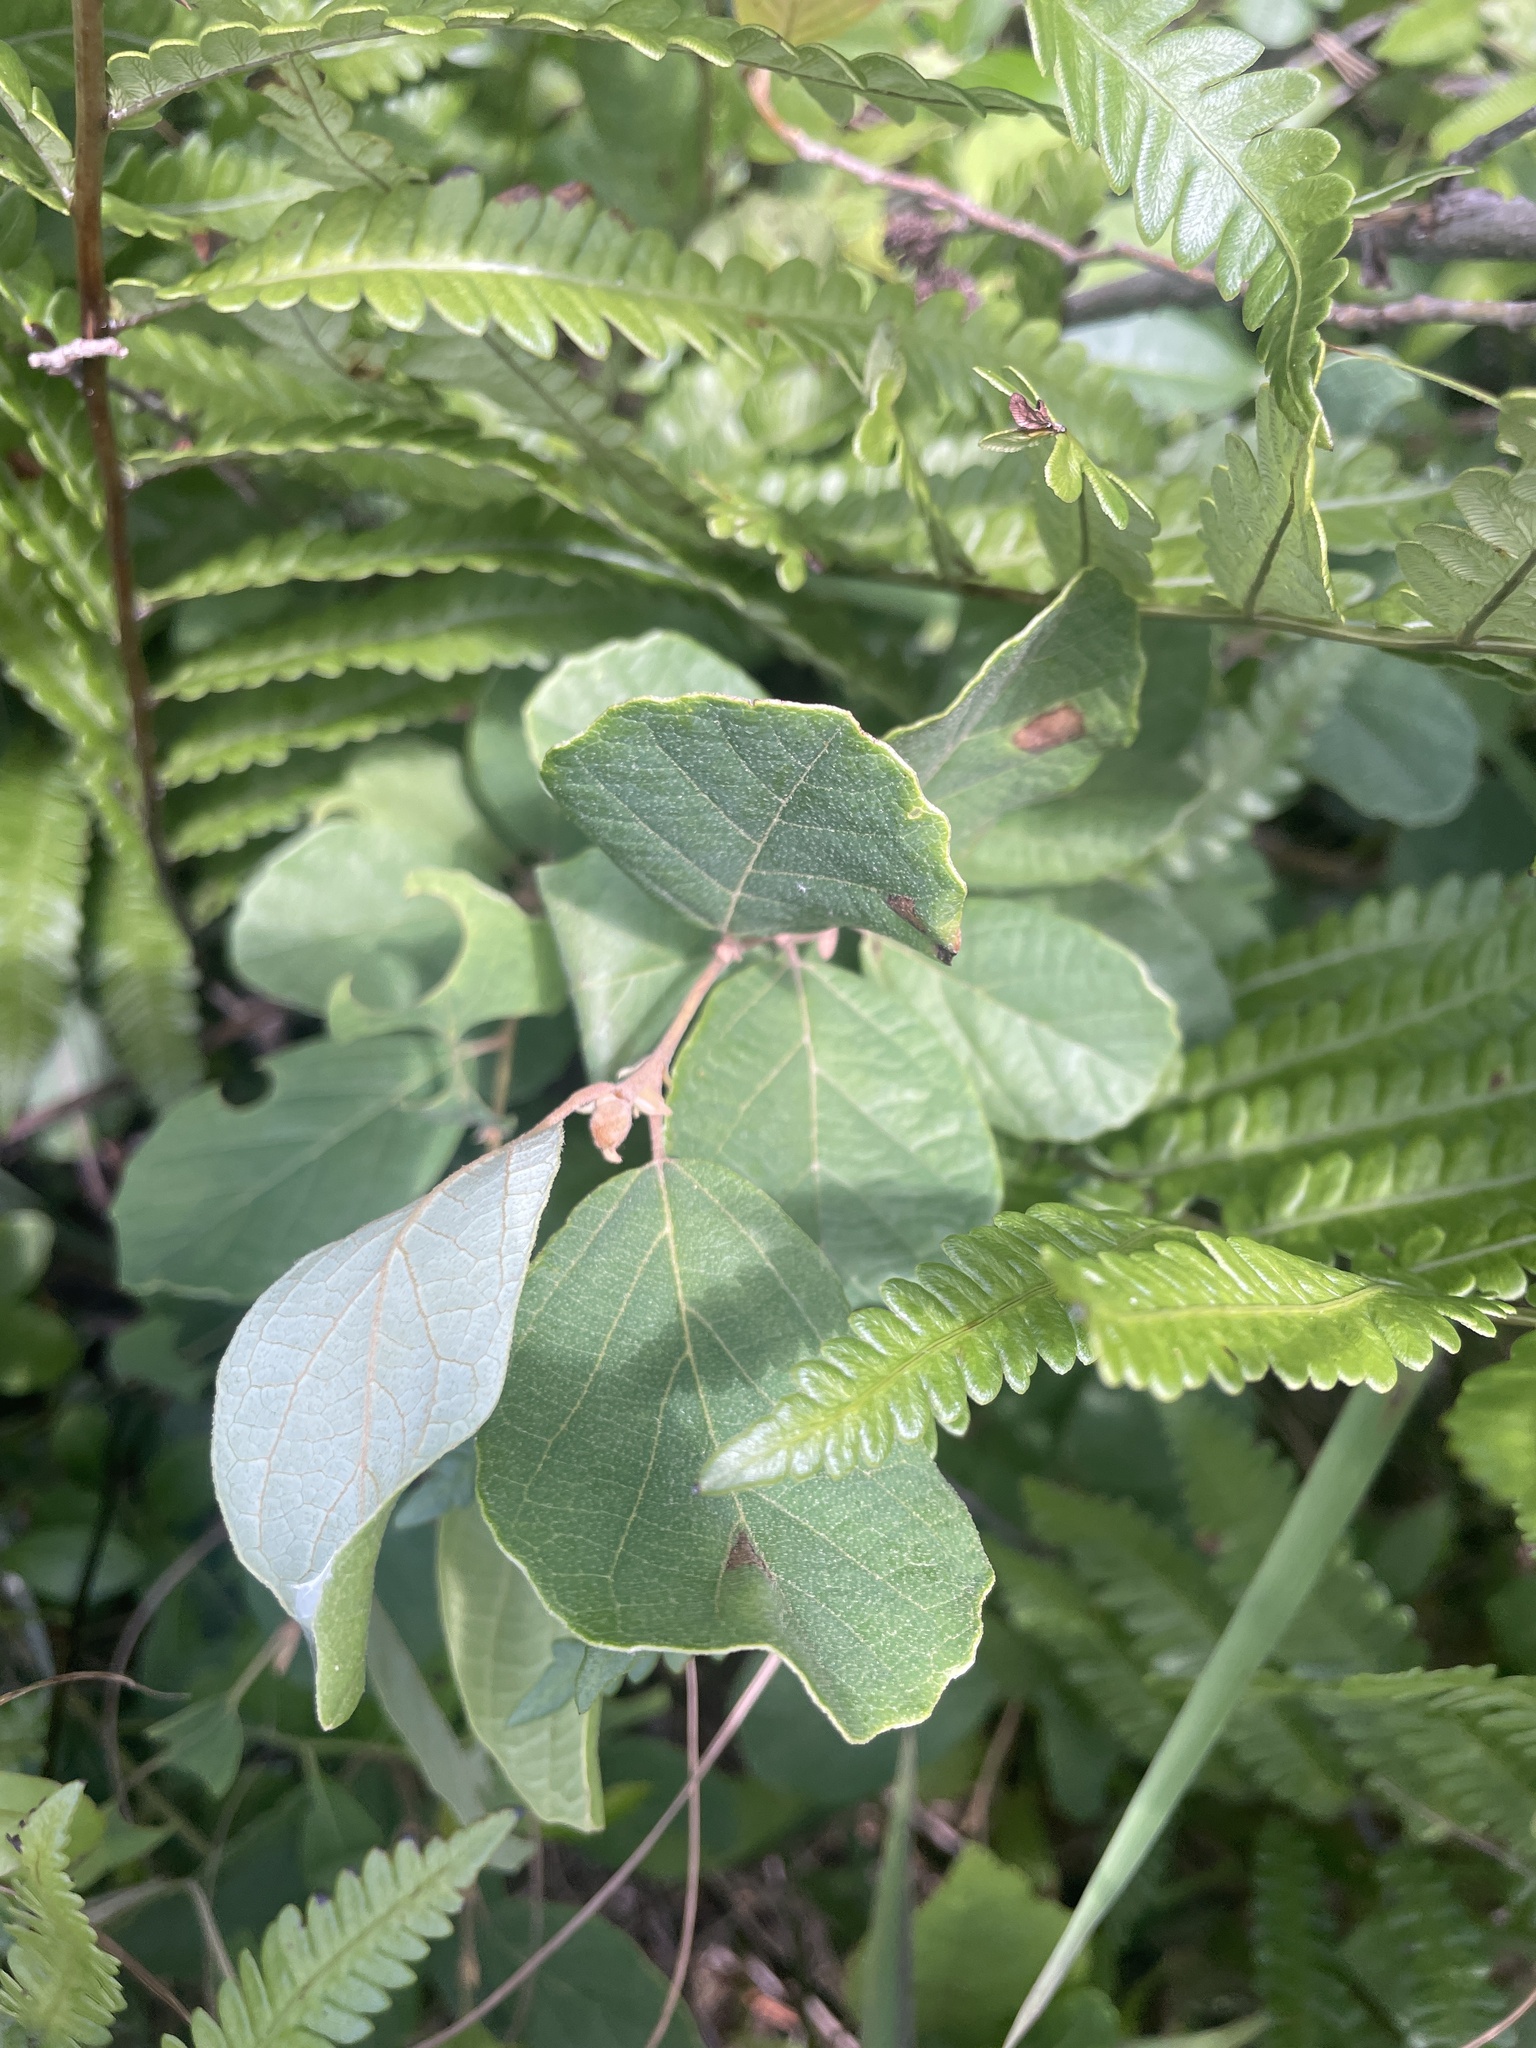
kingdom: Plantae
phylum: Tracheophyta
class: Magnoliopsida
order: Ericales
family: Styracaceae
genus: Styrax
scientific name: Styrax americanus
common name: American snowbell
